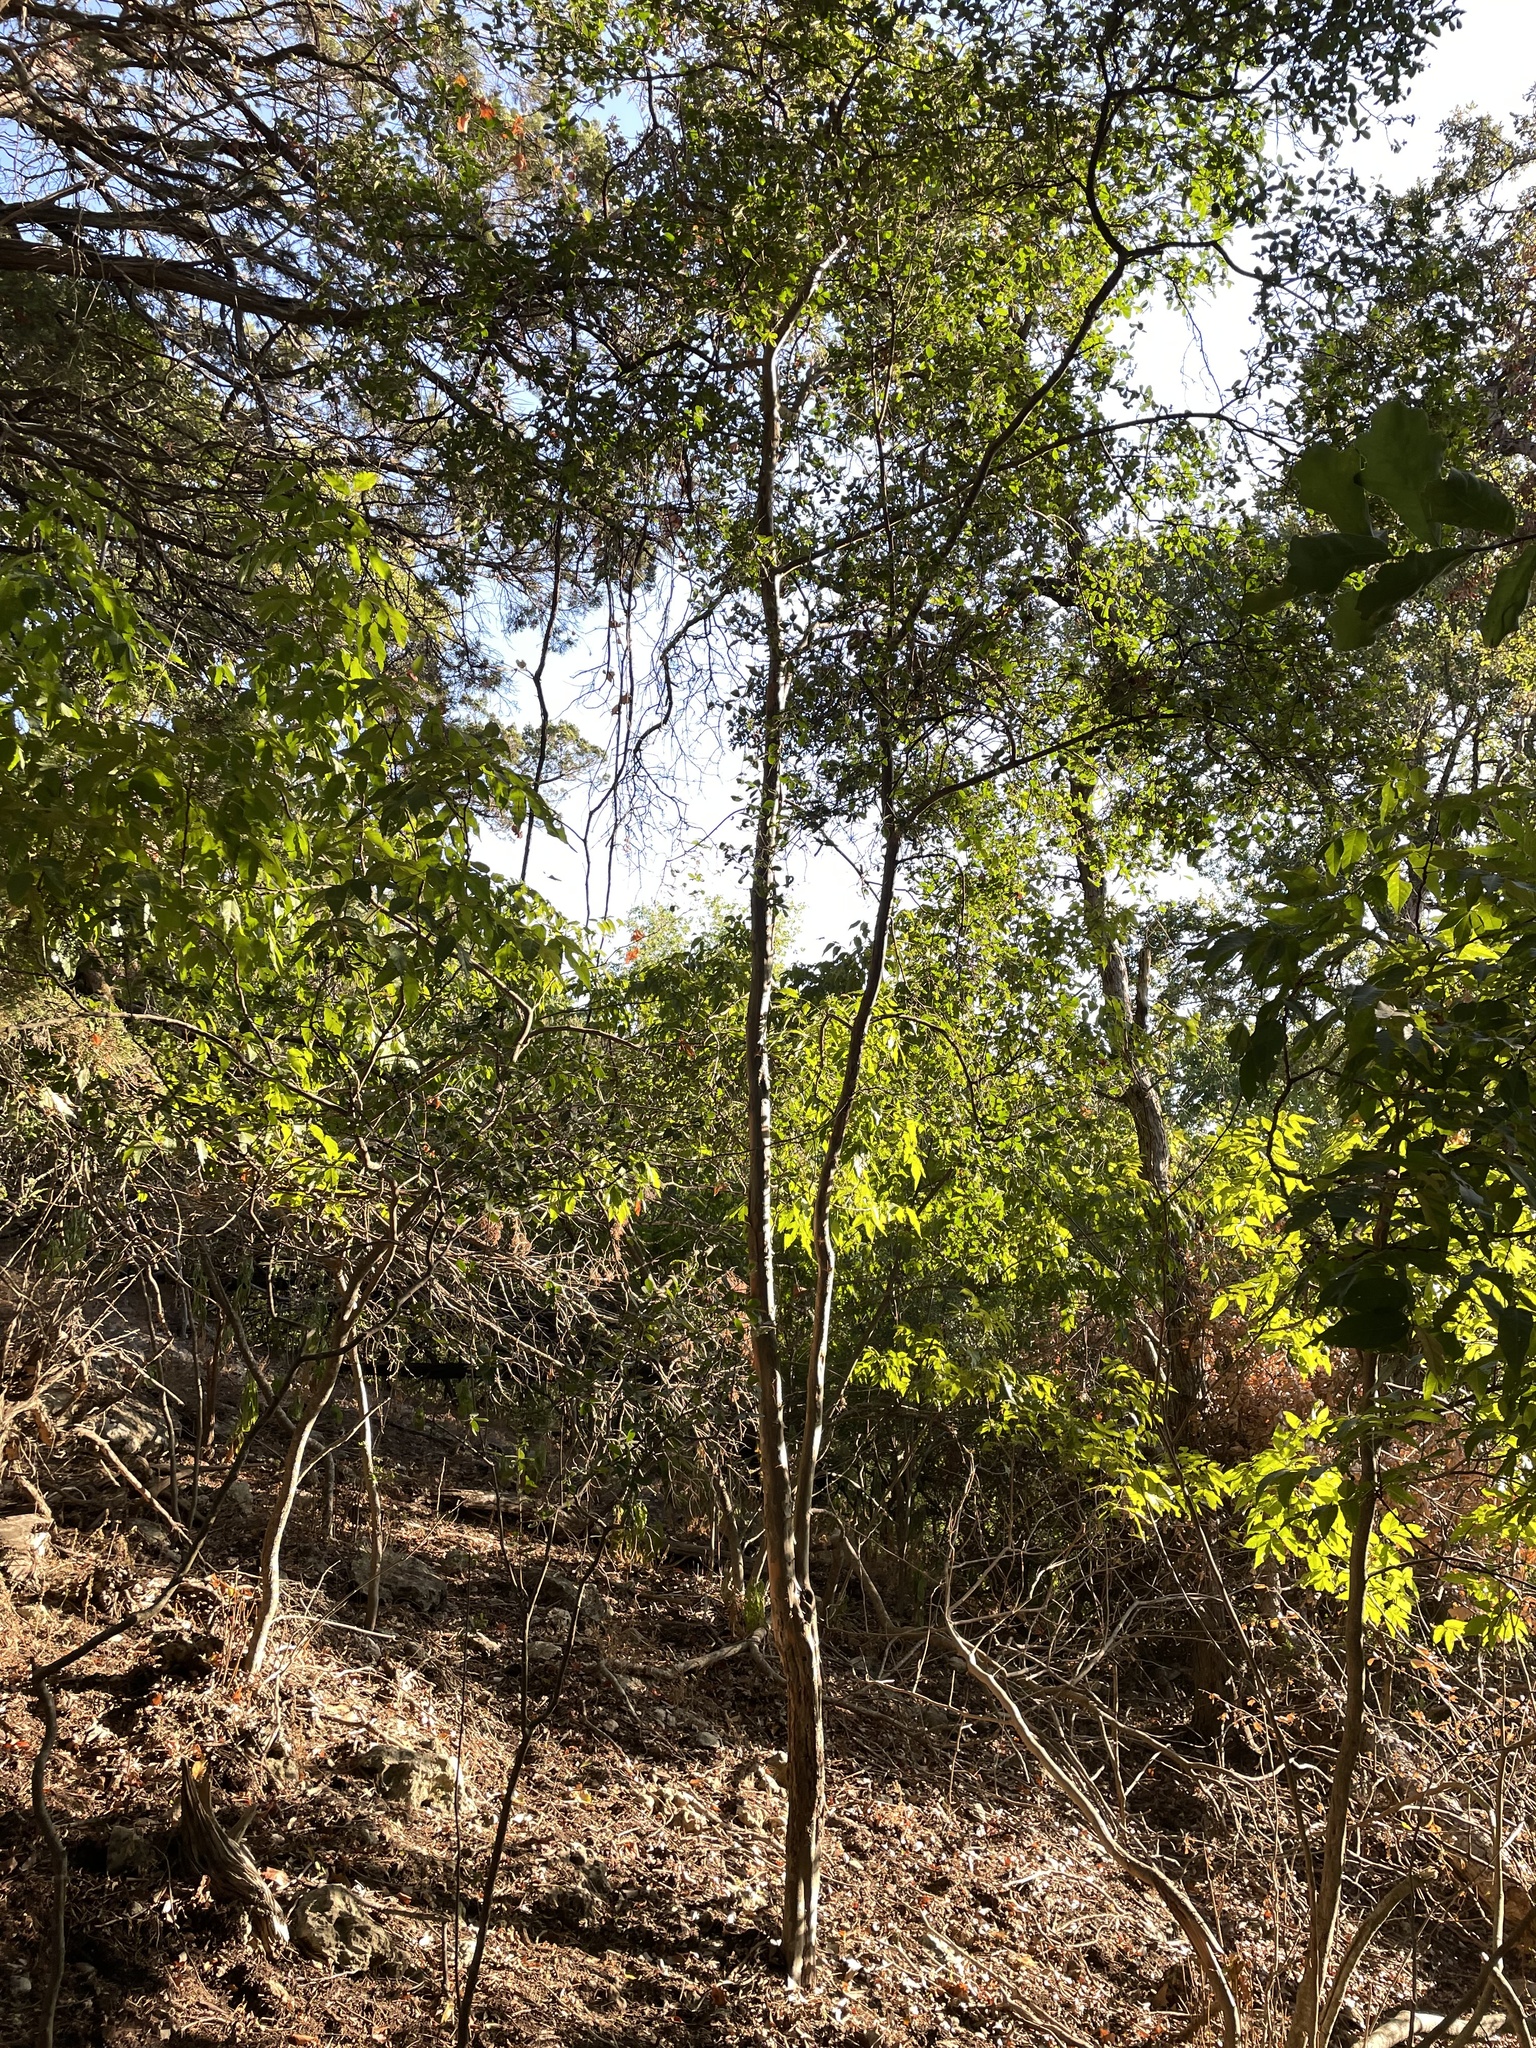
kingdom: Plantae
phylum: Tracheophyta
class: Magnoliopsida
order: Ericales
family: Ebenaceae
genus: Diospyros
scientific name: Diospyros texana
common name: Texas persimmon
